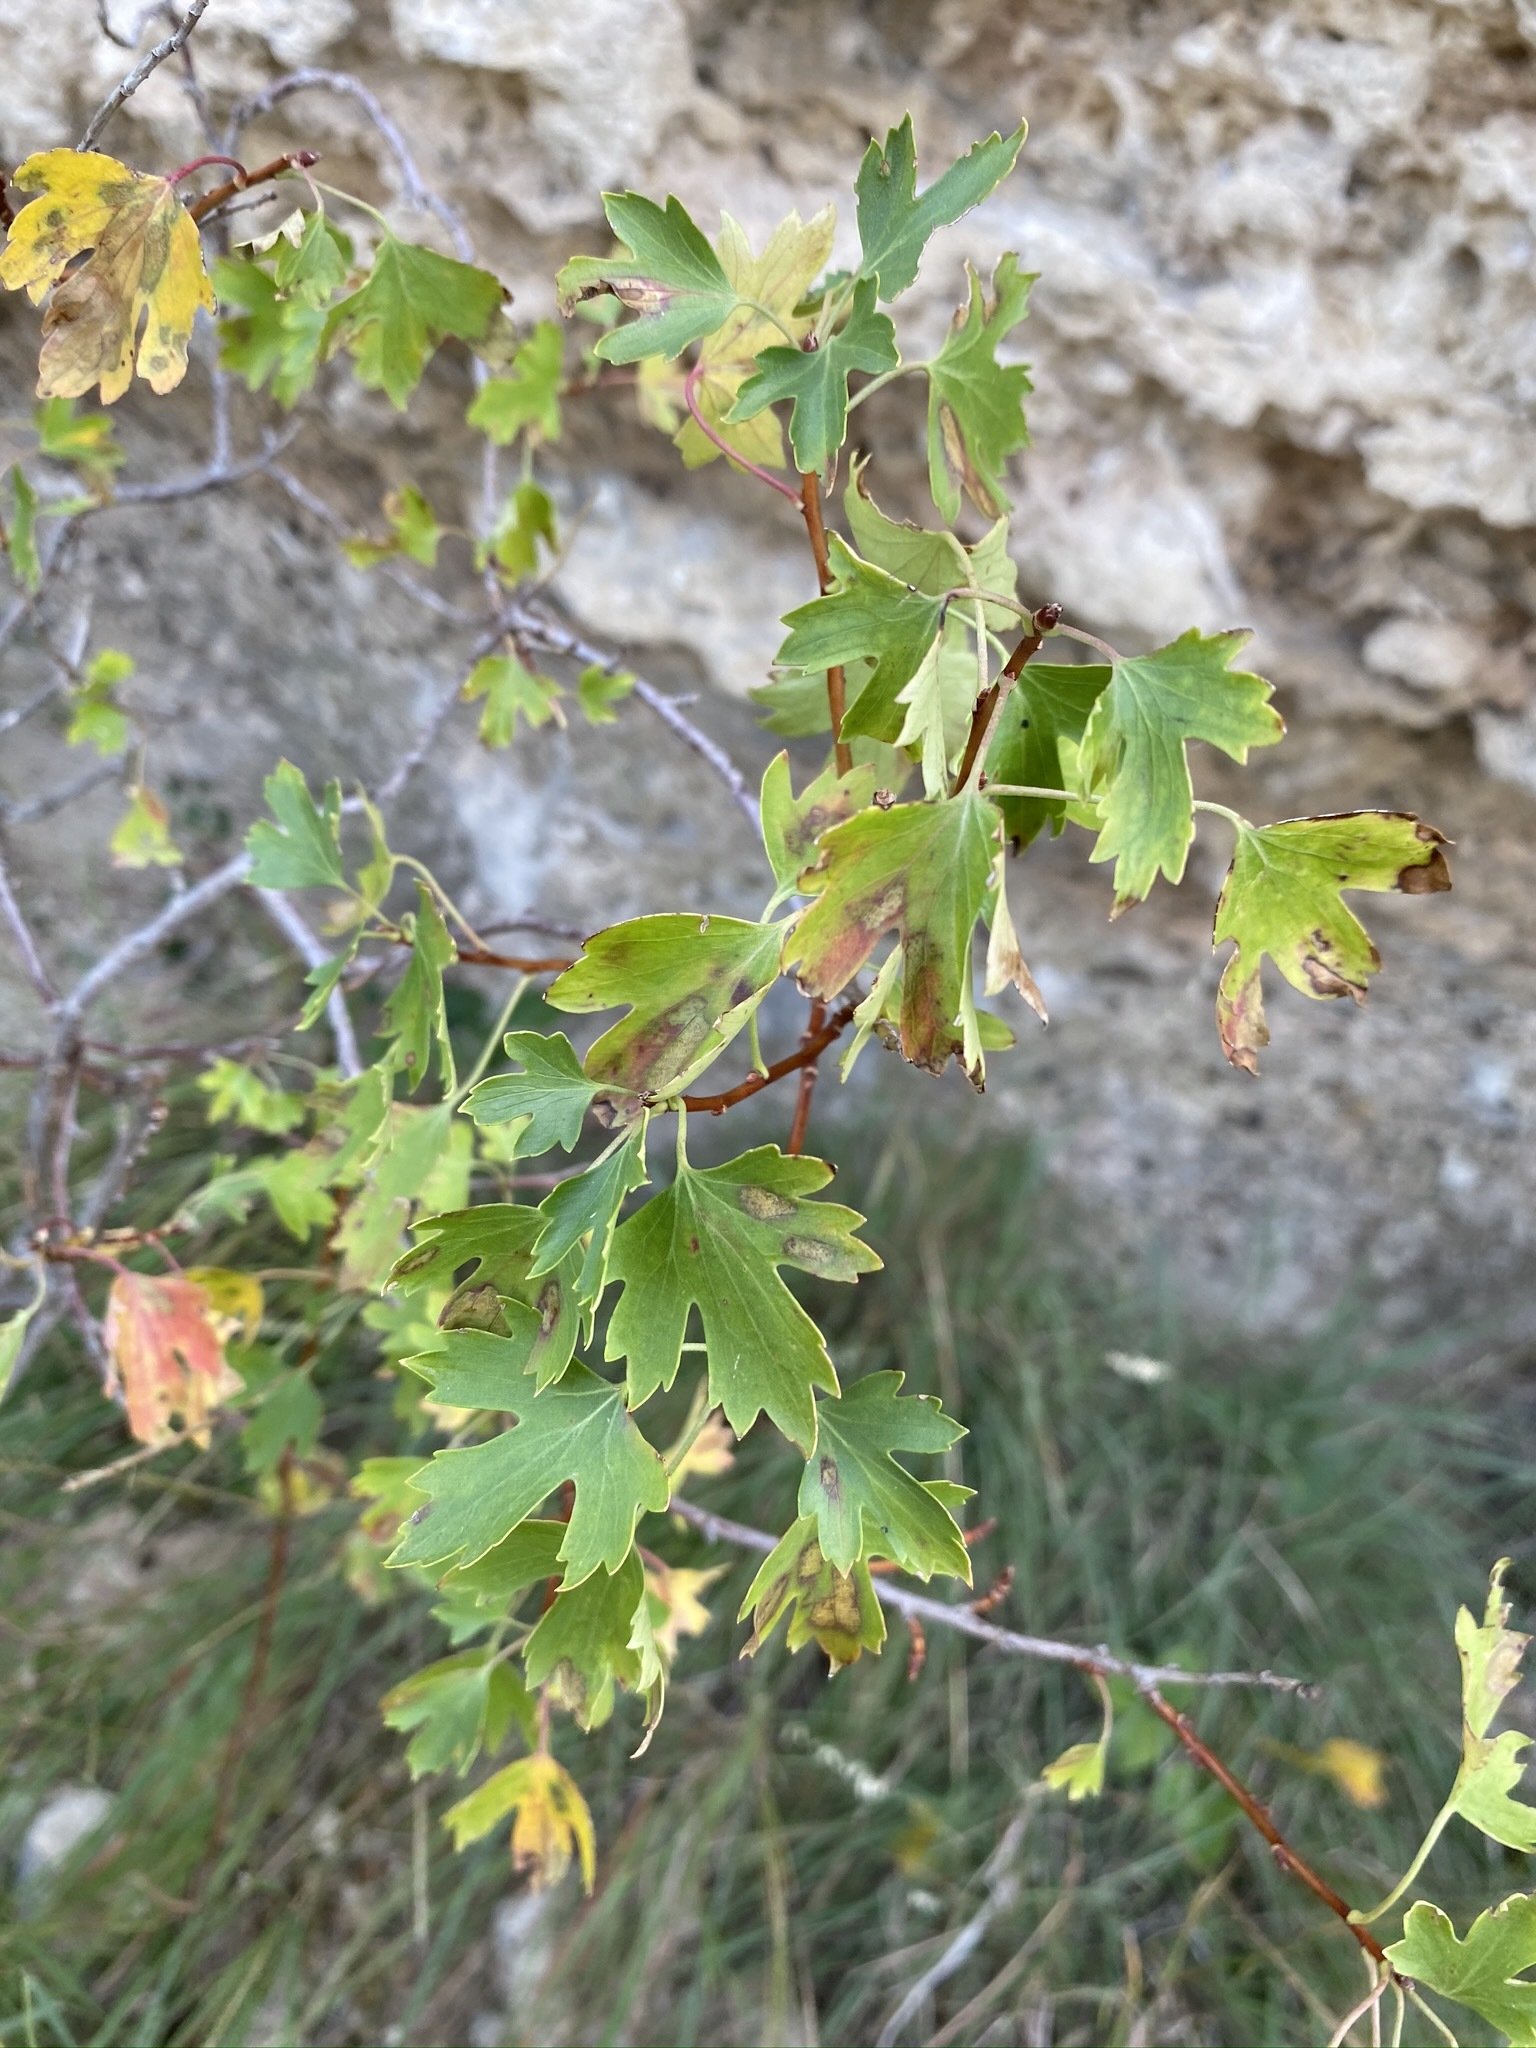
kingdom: Plantae
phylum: Tracheophyta
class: Magnoliopsida
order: Saxifragales
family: Grossulariaceae
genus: Ribes
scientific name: Ribes aureum
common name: Golden currant
